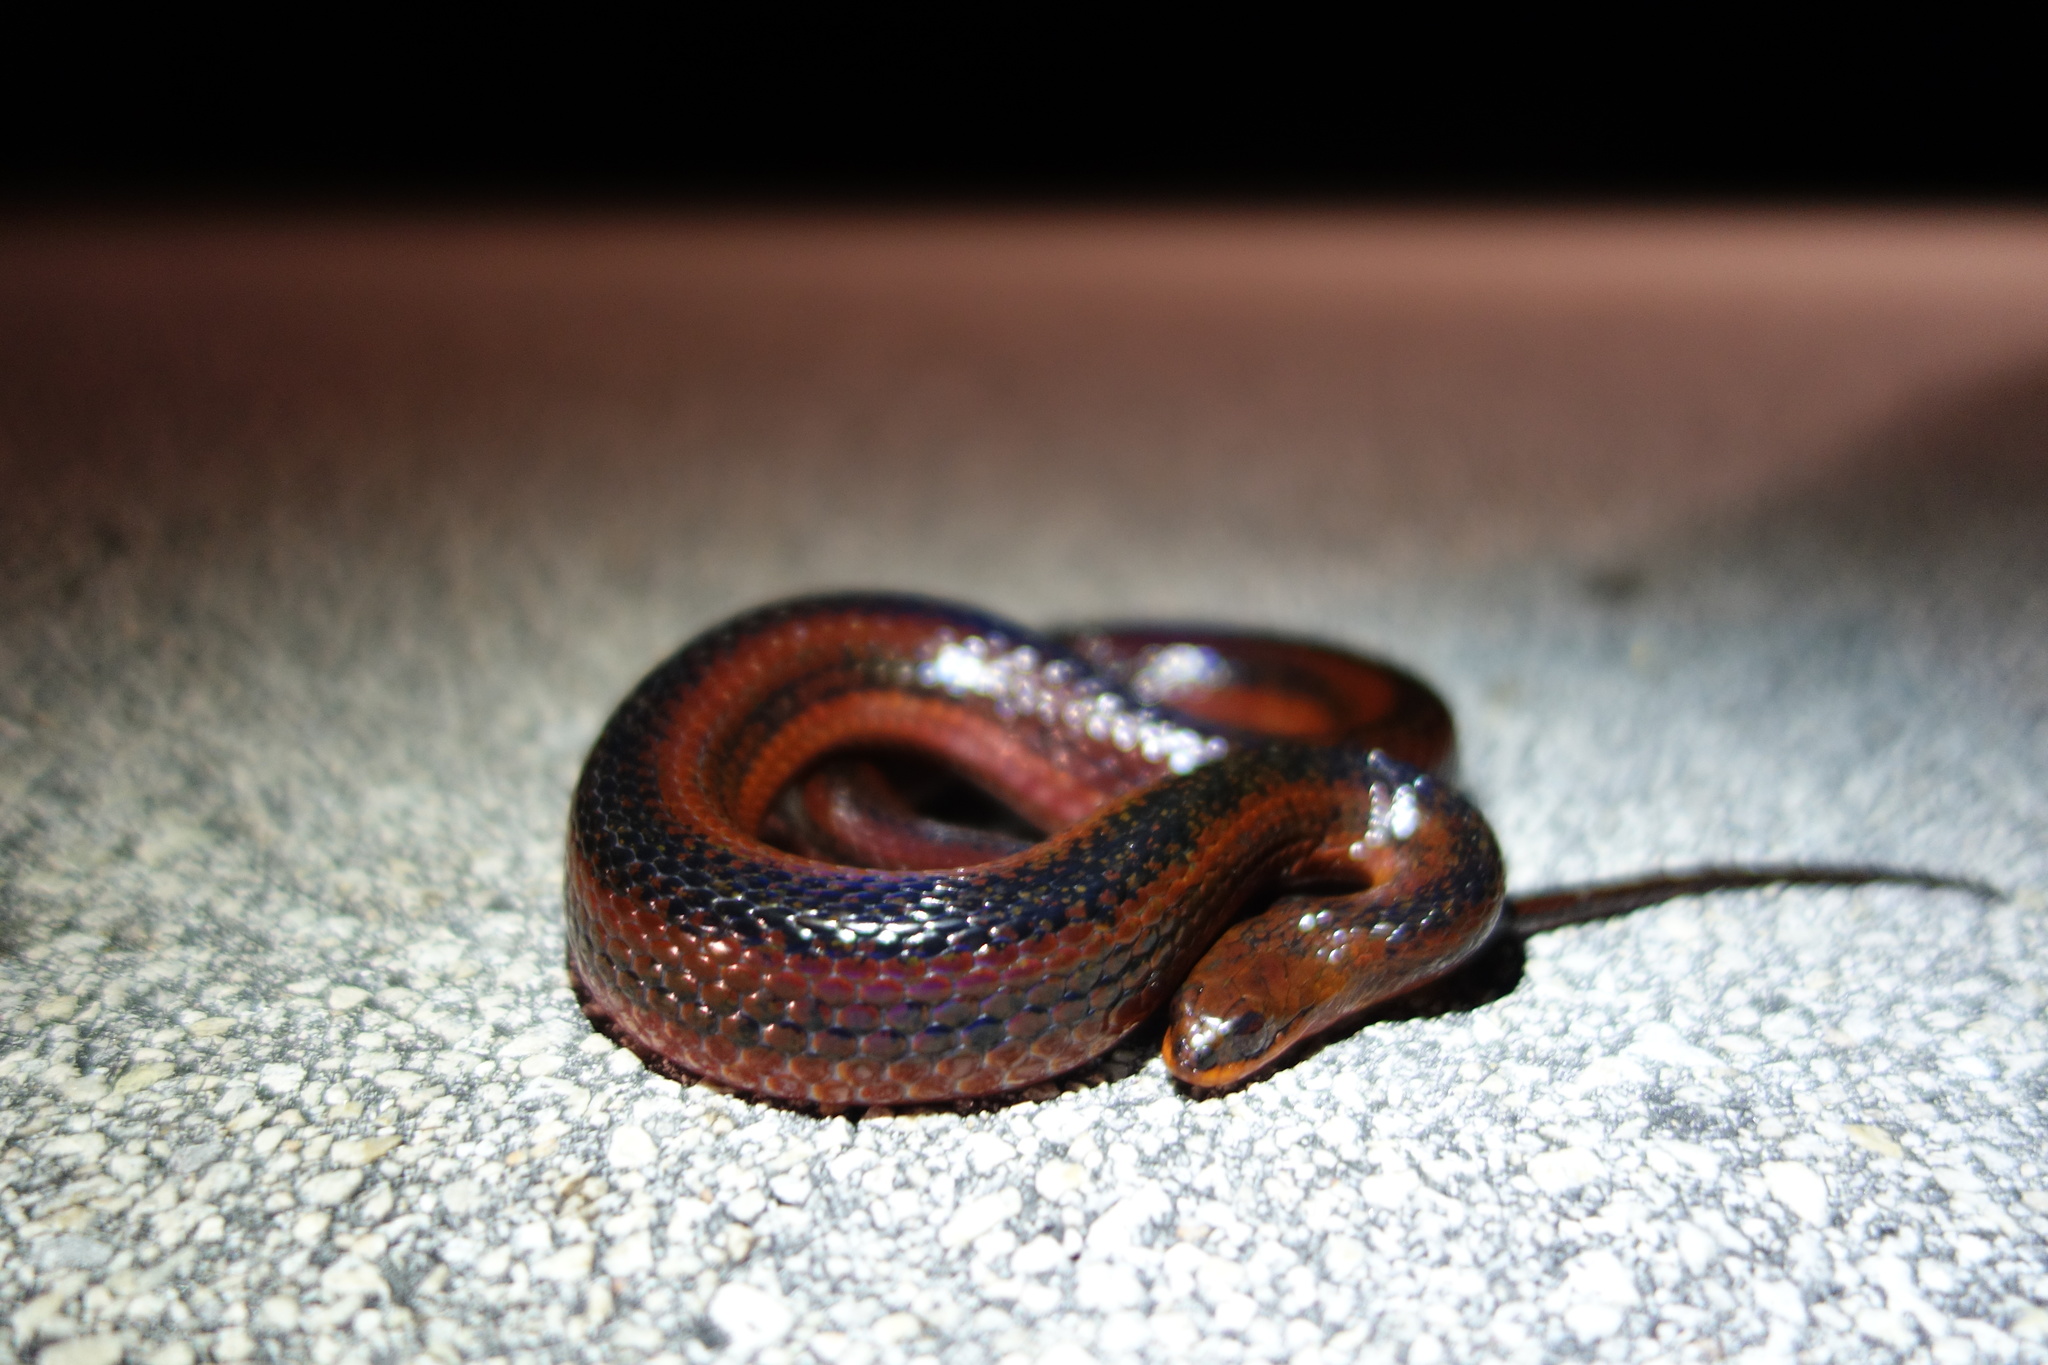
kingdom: Animalia
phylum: Chordata
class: Squamata
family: Colubridae
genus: Liodytes
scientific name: Liodytes alleni
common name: Striped crayfish snake
